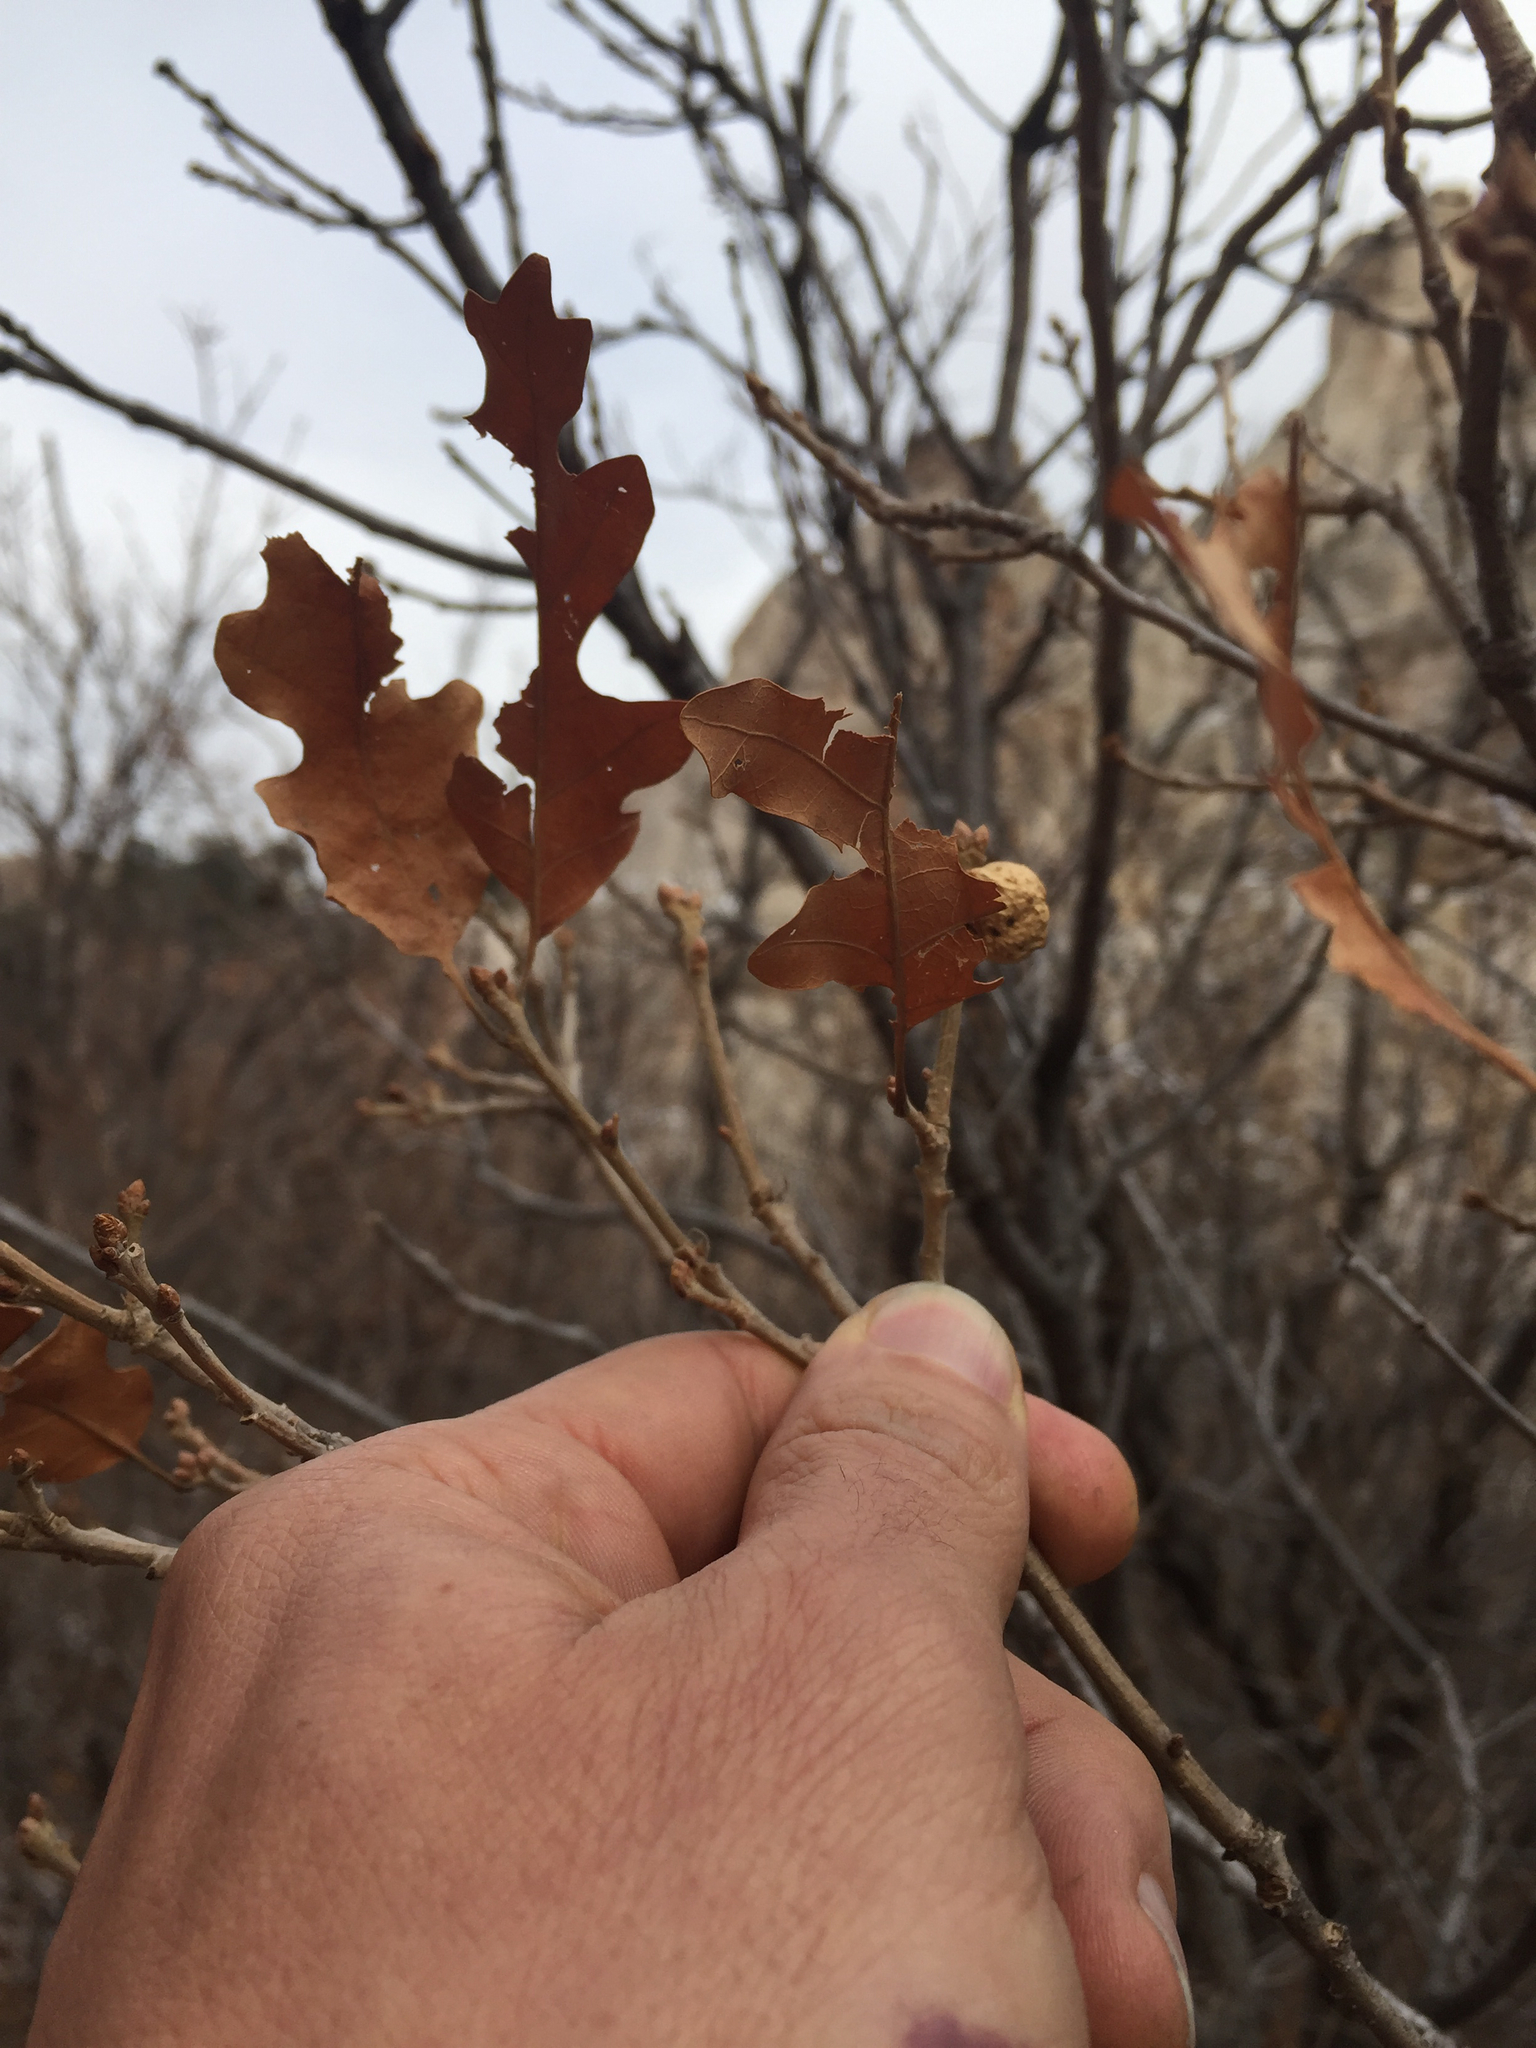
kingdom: Plantae
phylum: Tracheophyta
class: Magnoliopsida
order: Fagales
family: Fagaceae
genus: Quercus
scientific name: Quercus gambelii
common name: Gambel oak
